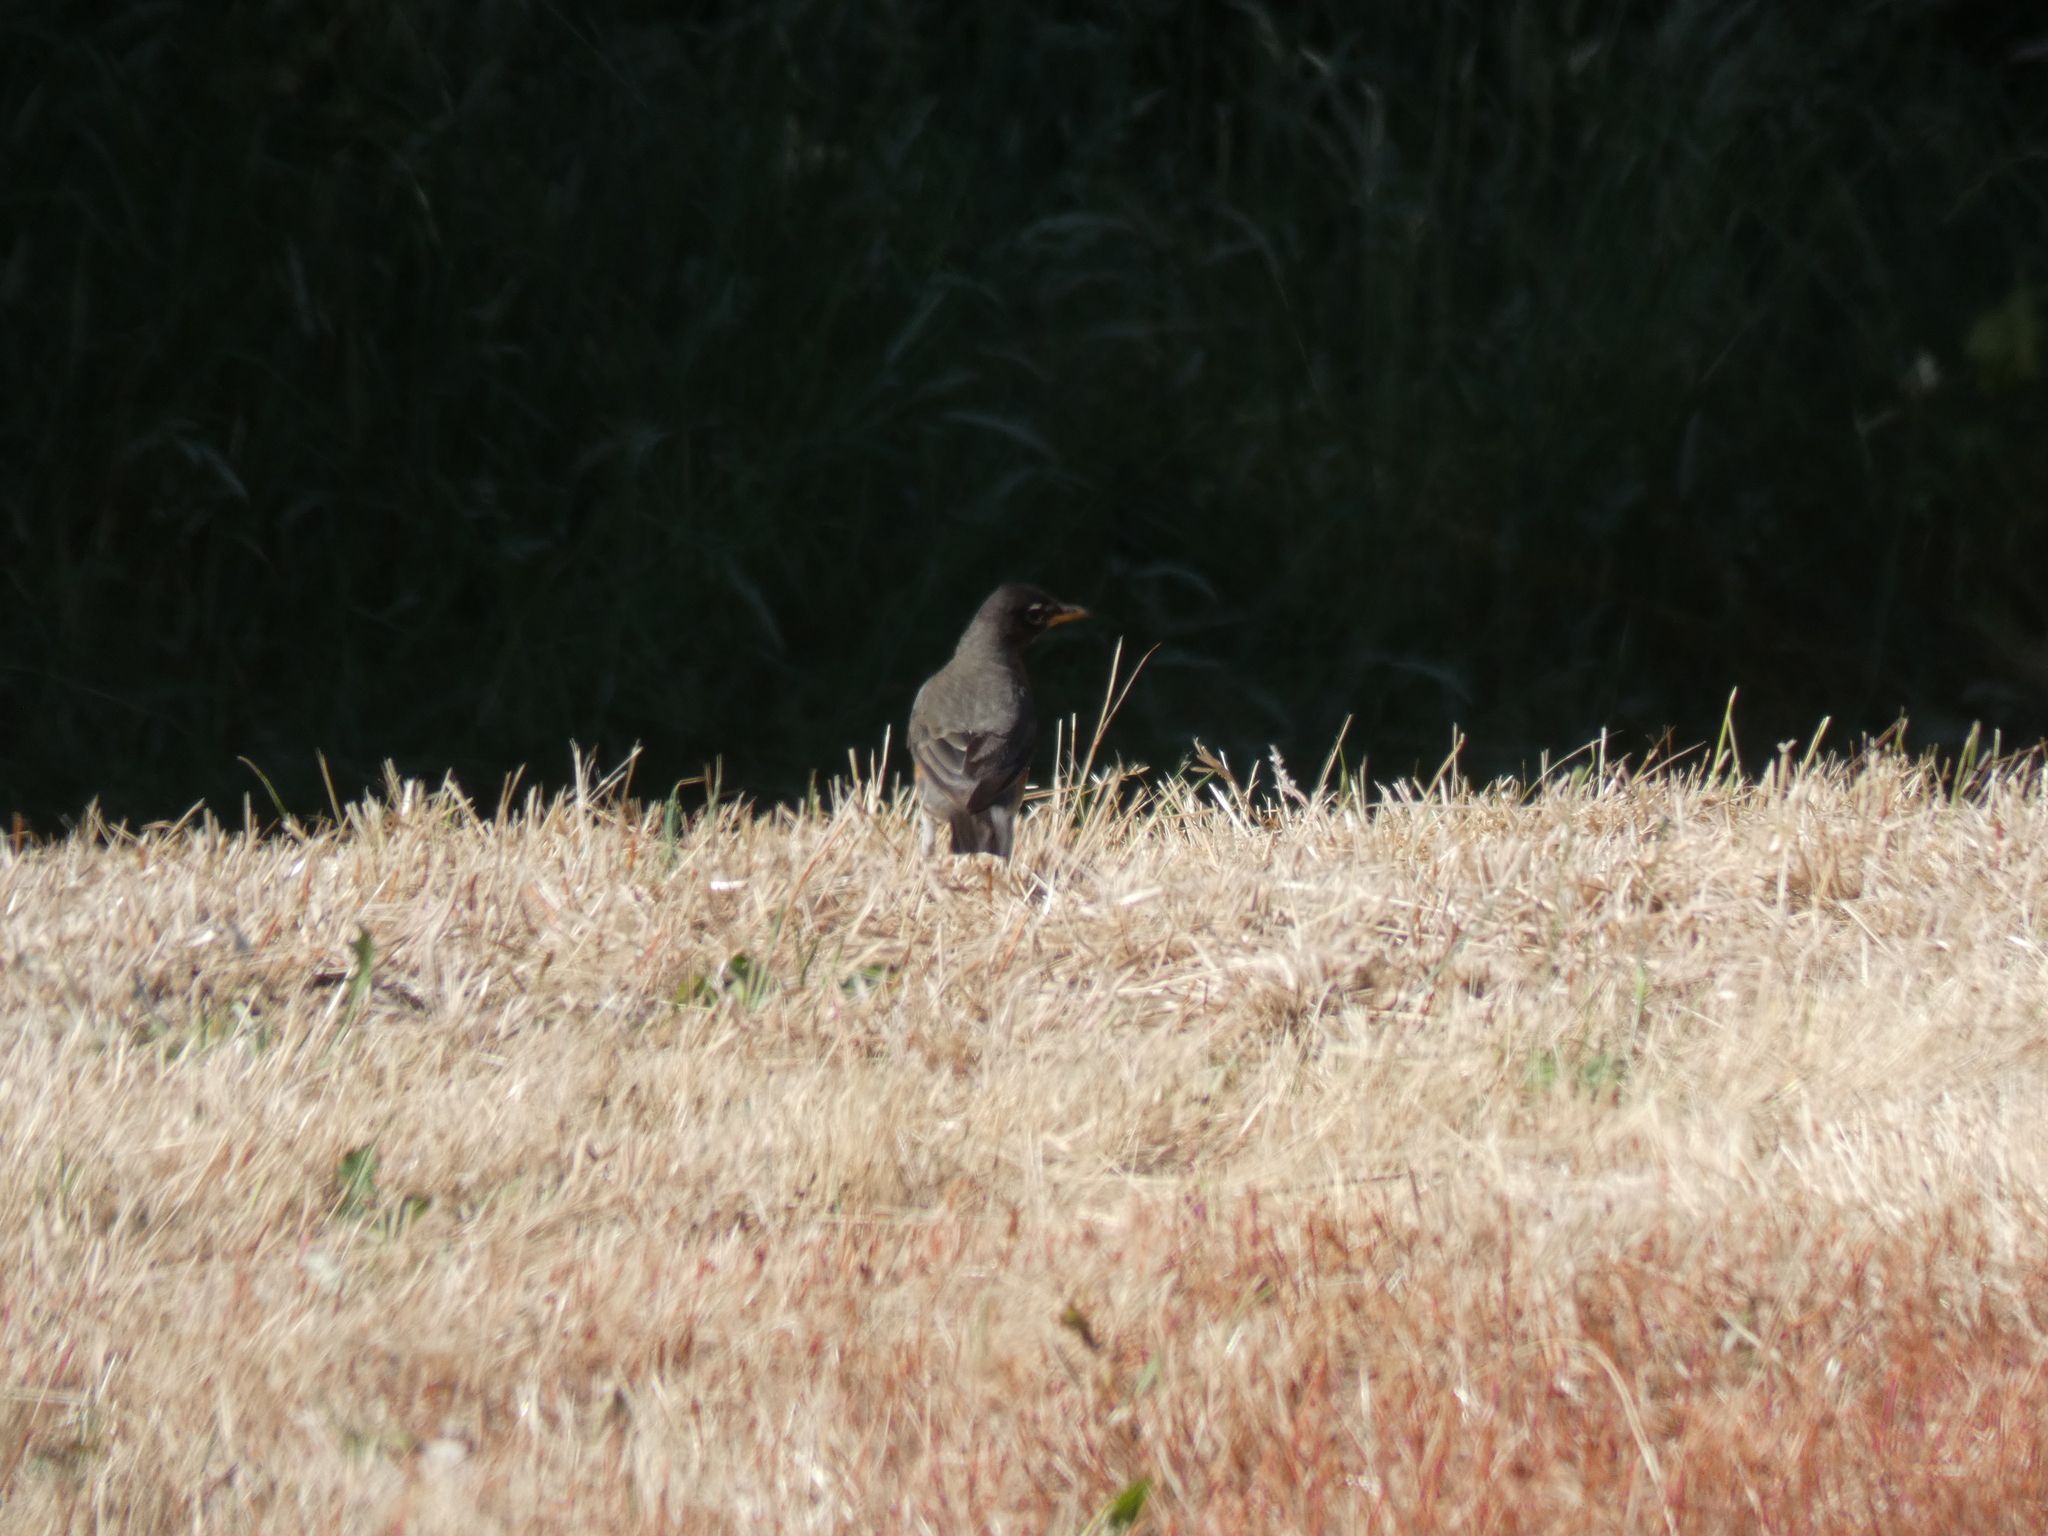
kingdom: Animalia
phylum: Chordata
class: Aves
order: Passeriformes
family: Turdidae
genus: Turdus
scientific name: Turdus migratorius
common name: American robin
